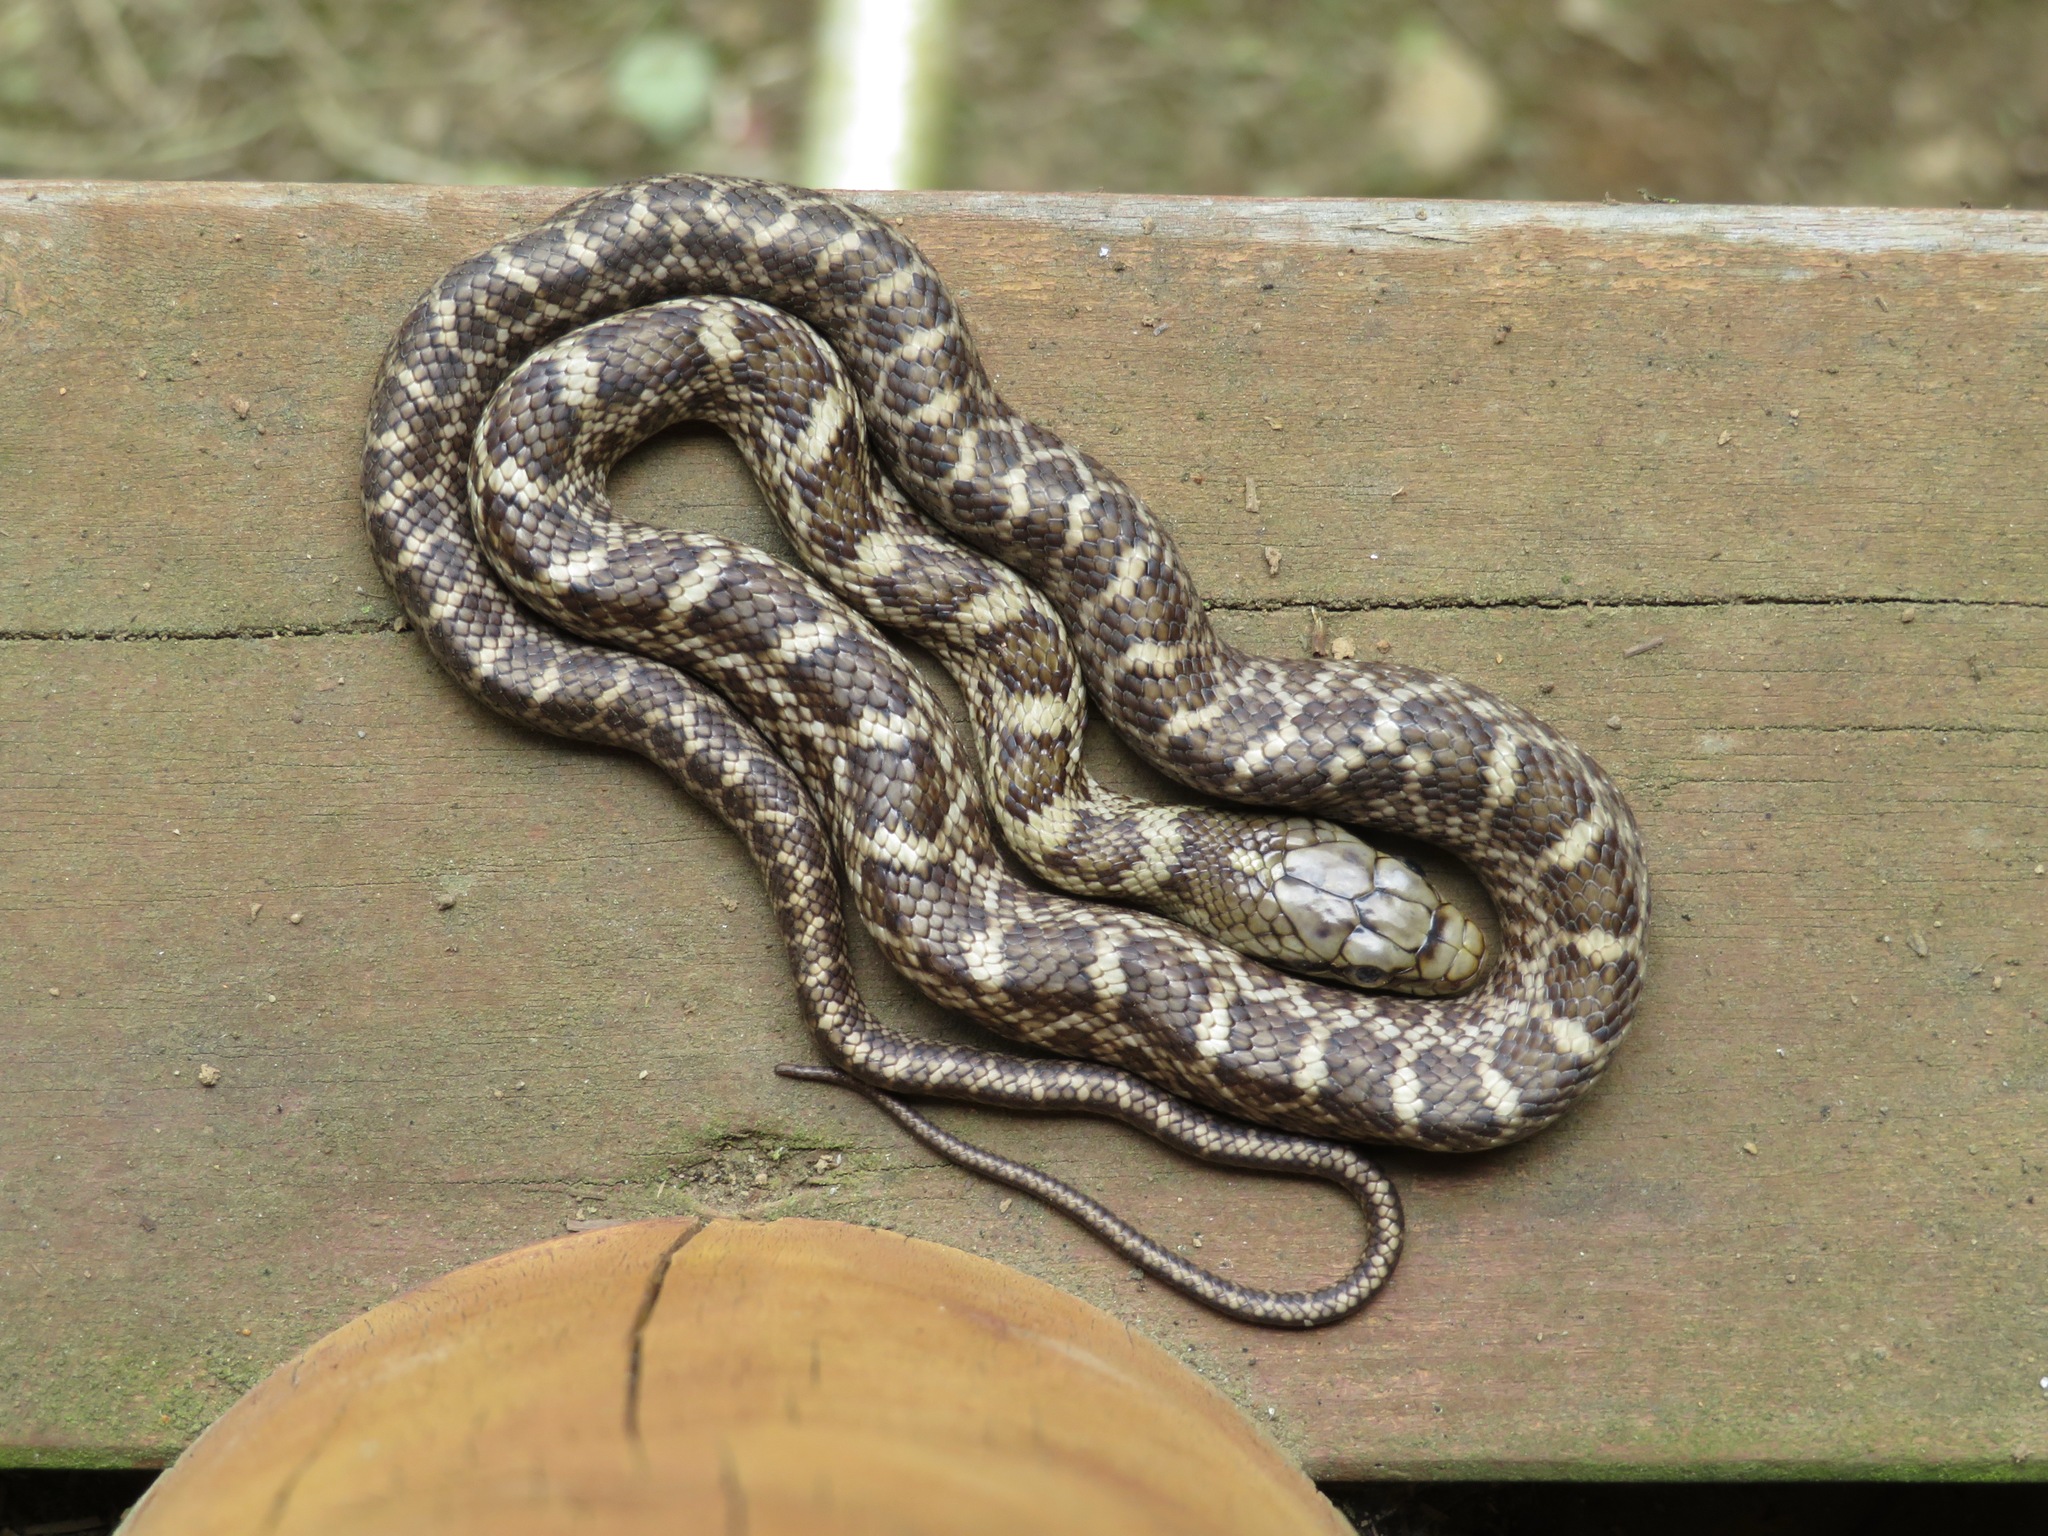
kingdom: Animalia
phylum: Chordata
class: Squamata
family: Colubridae
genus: Elaphe
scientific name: Elaphe climacophora
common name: Japanese ratsnake
